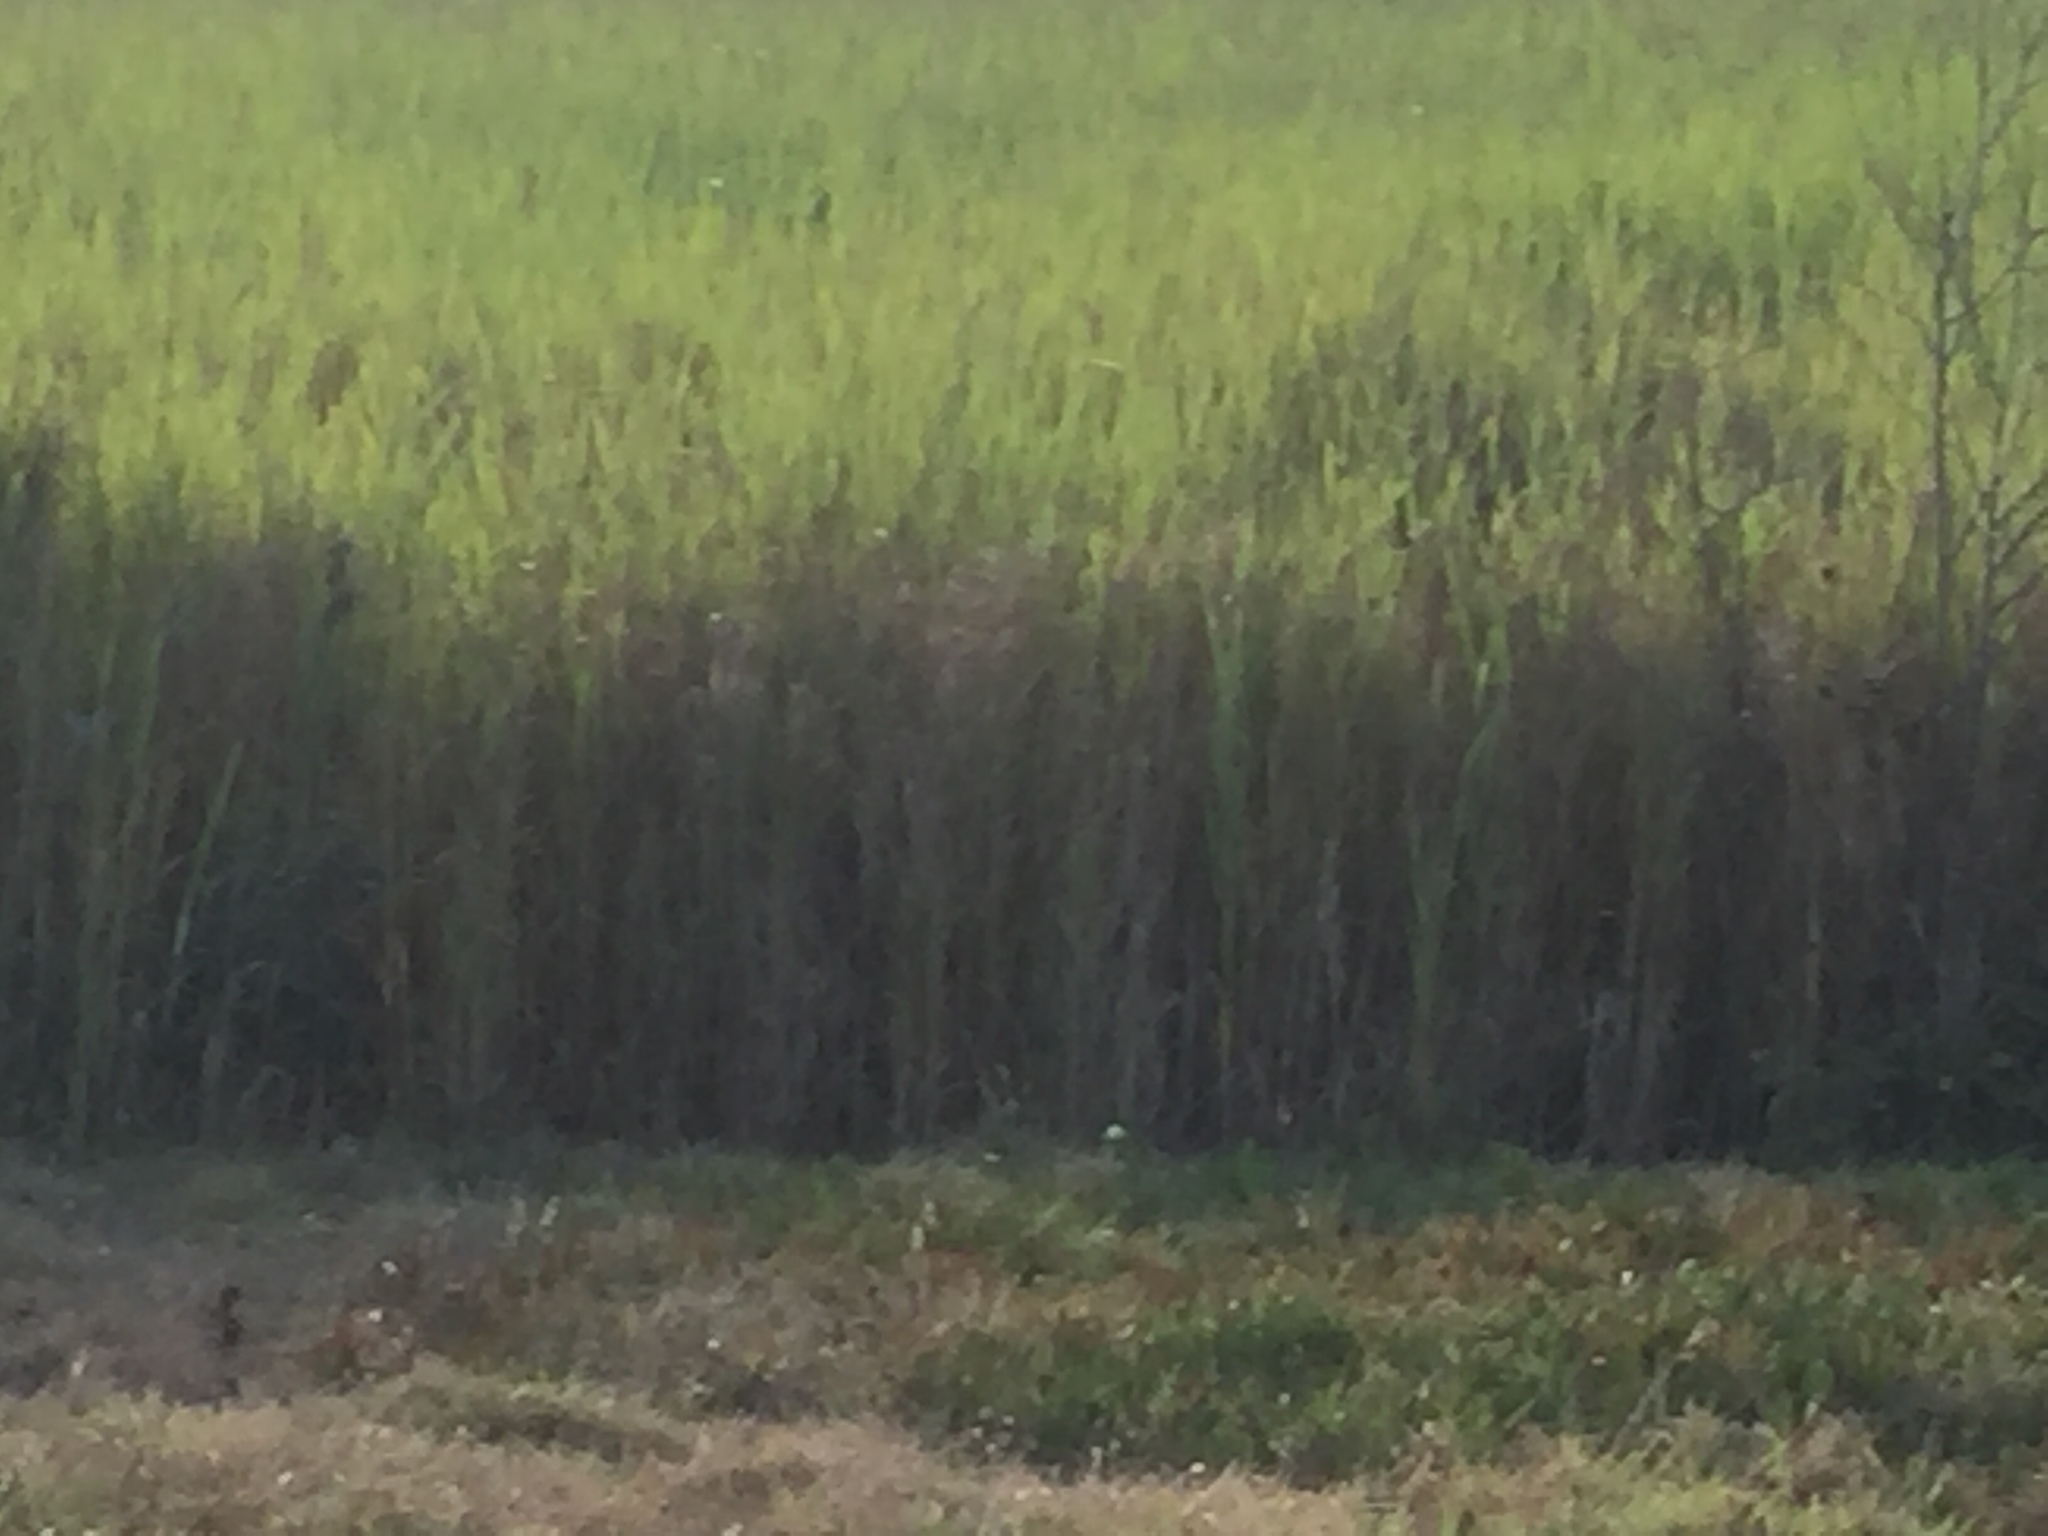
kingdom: Plantae
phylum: Tracheophyta
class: Liliopsida
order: Poales
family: Poaceae
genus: Echinochloa
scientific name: Echinochloa pyramidalis
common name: Antelope grass
